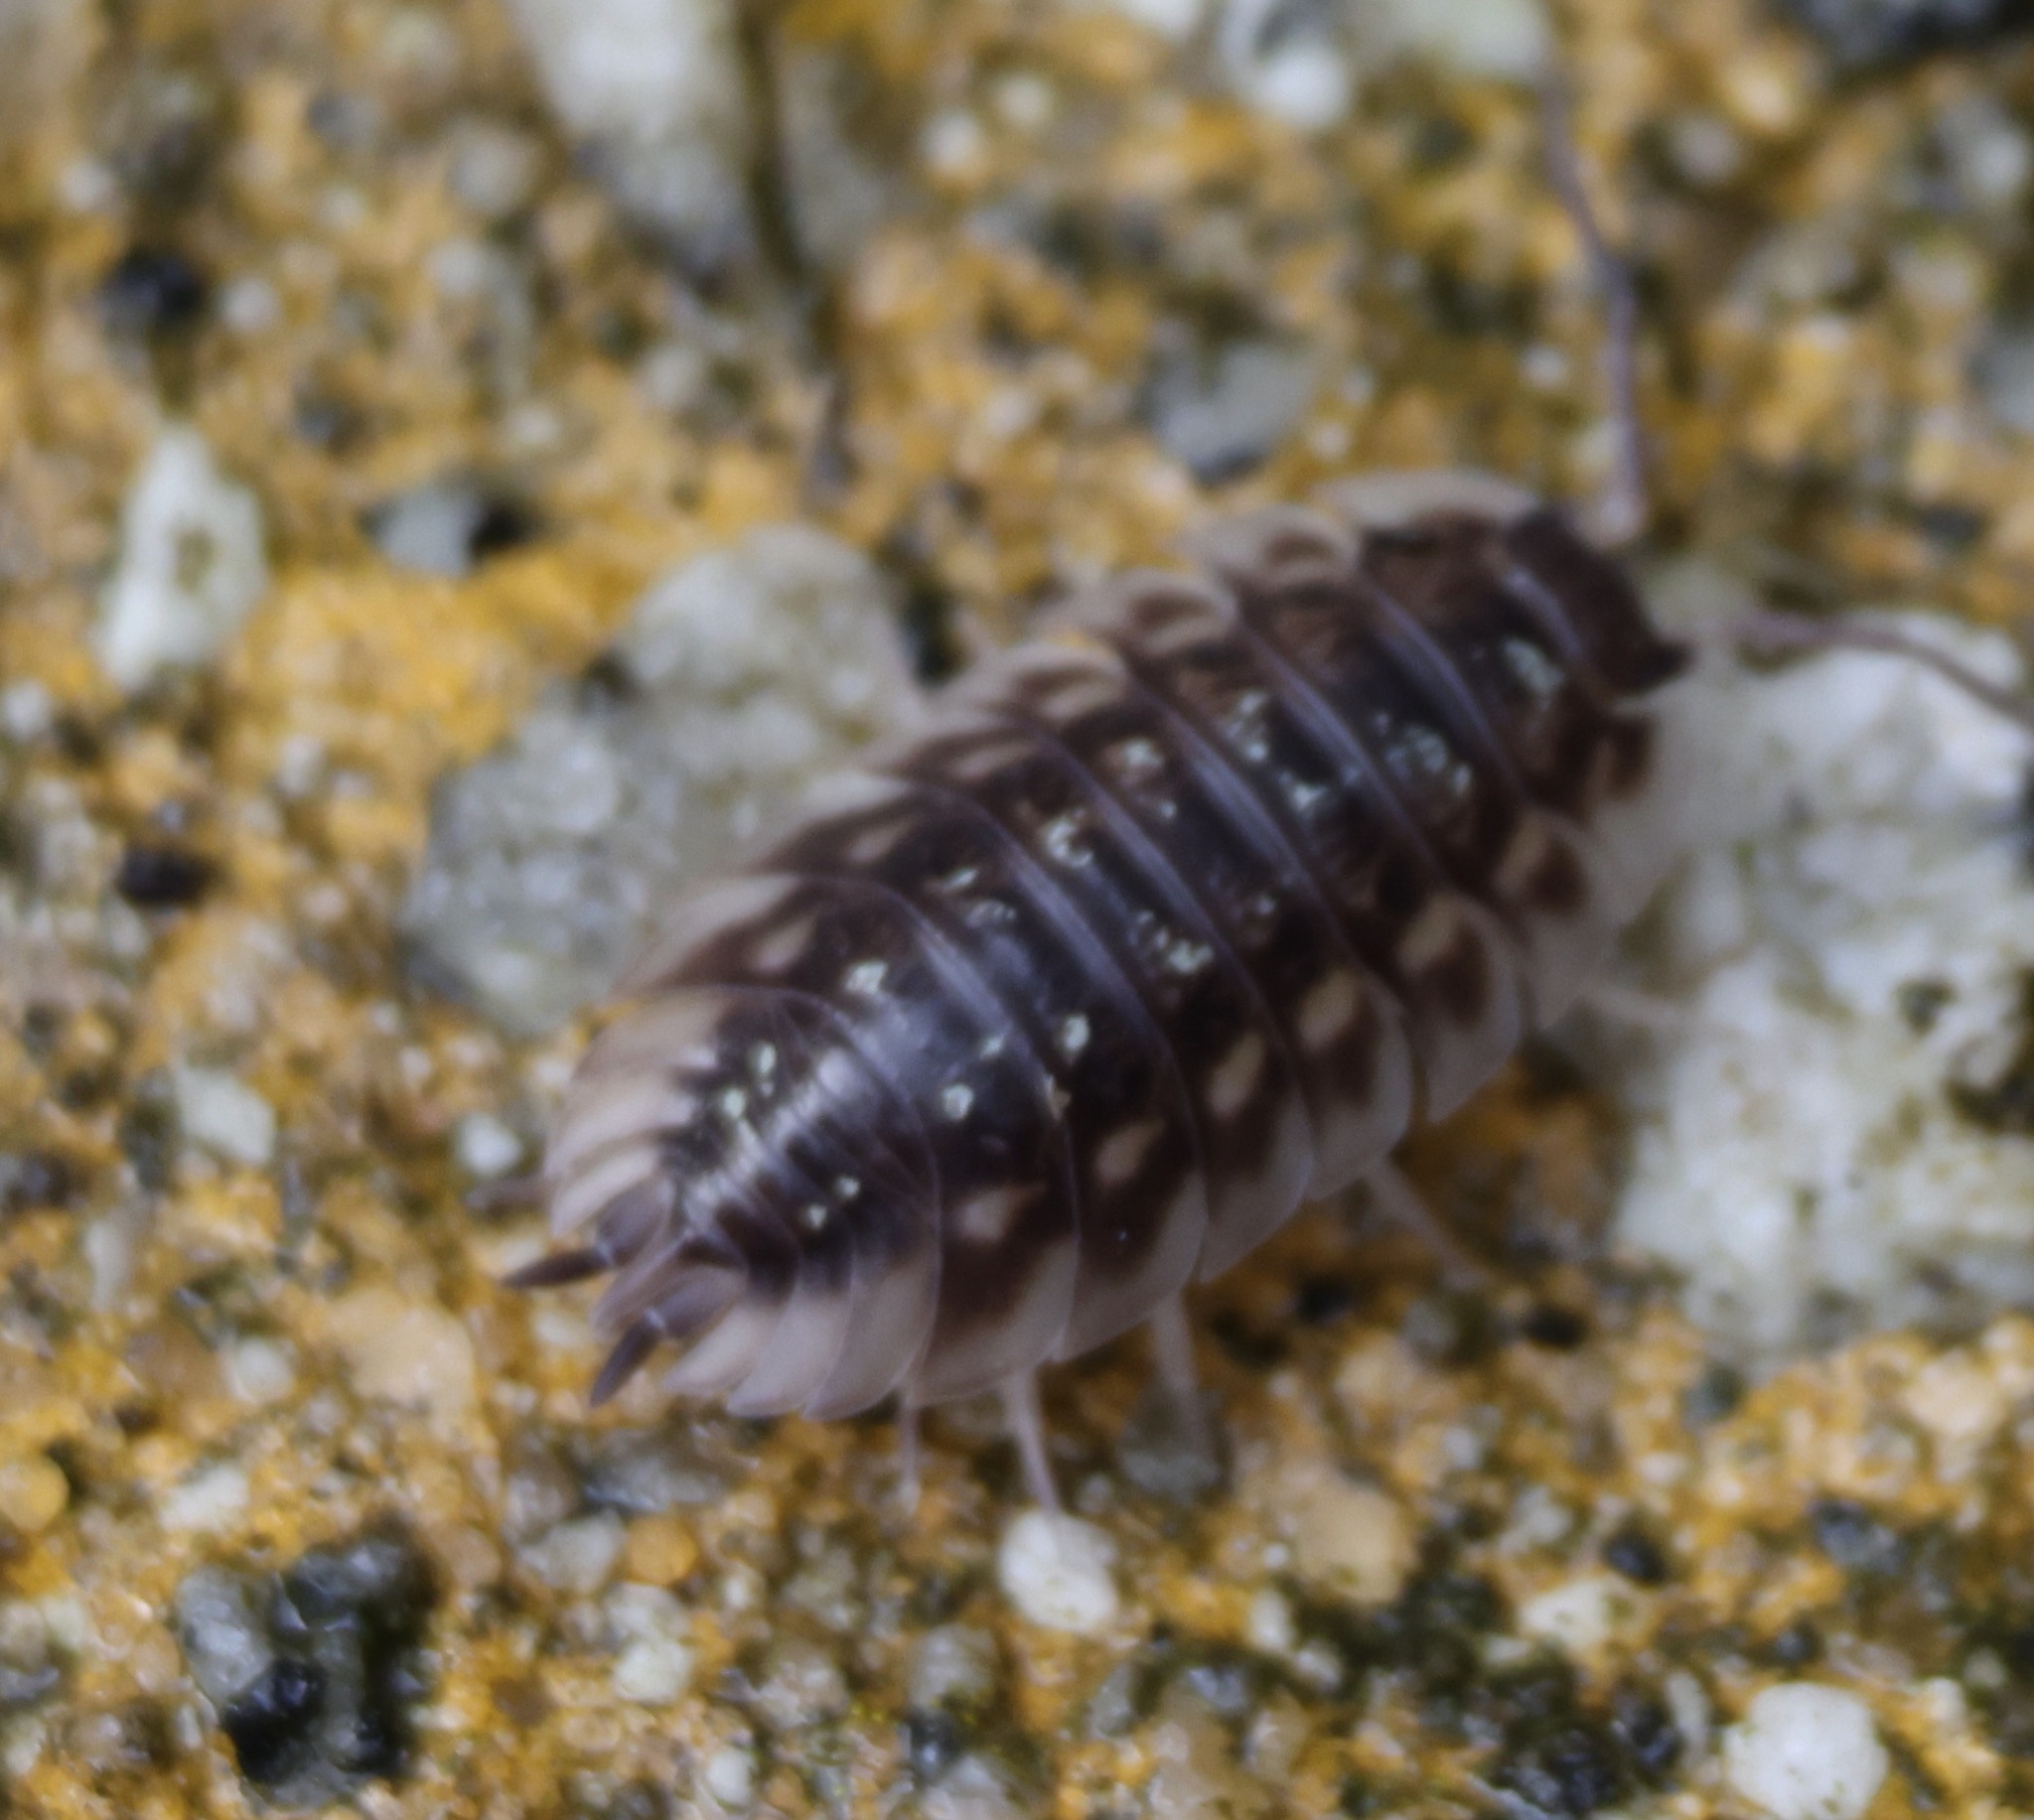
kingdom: Animalia
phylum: Arthropoda
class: Malacostraca
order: Isopoda
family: Oniscidae
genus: Oniscus
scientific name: Oniscus asellus
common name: Common shiny woodlouse
